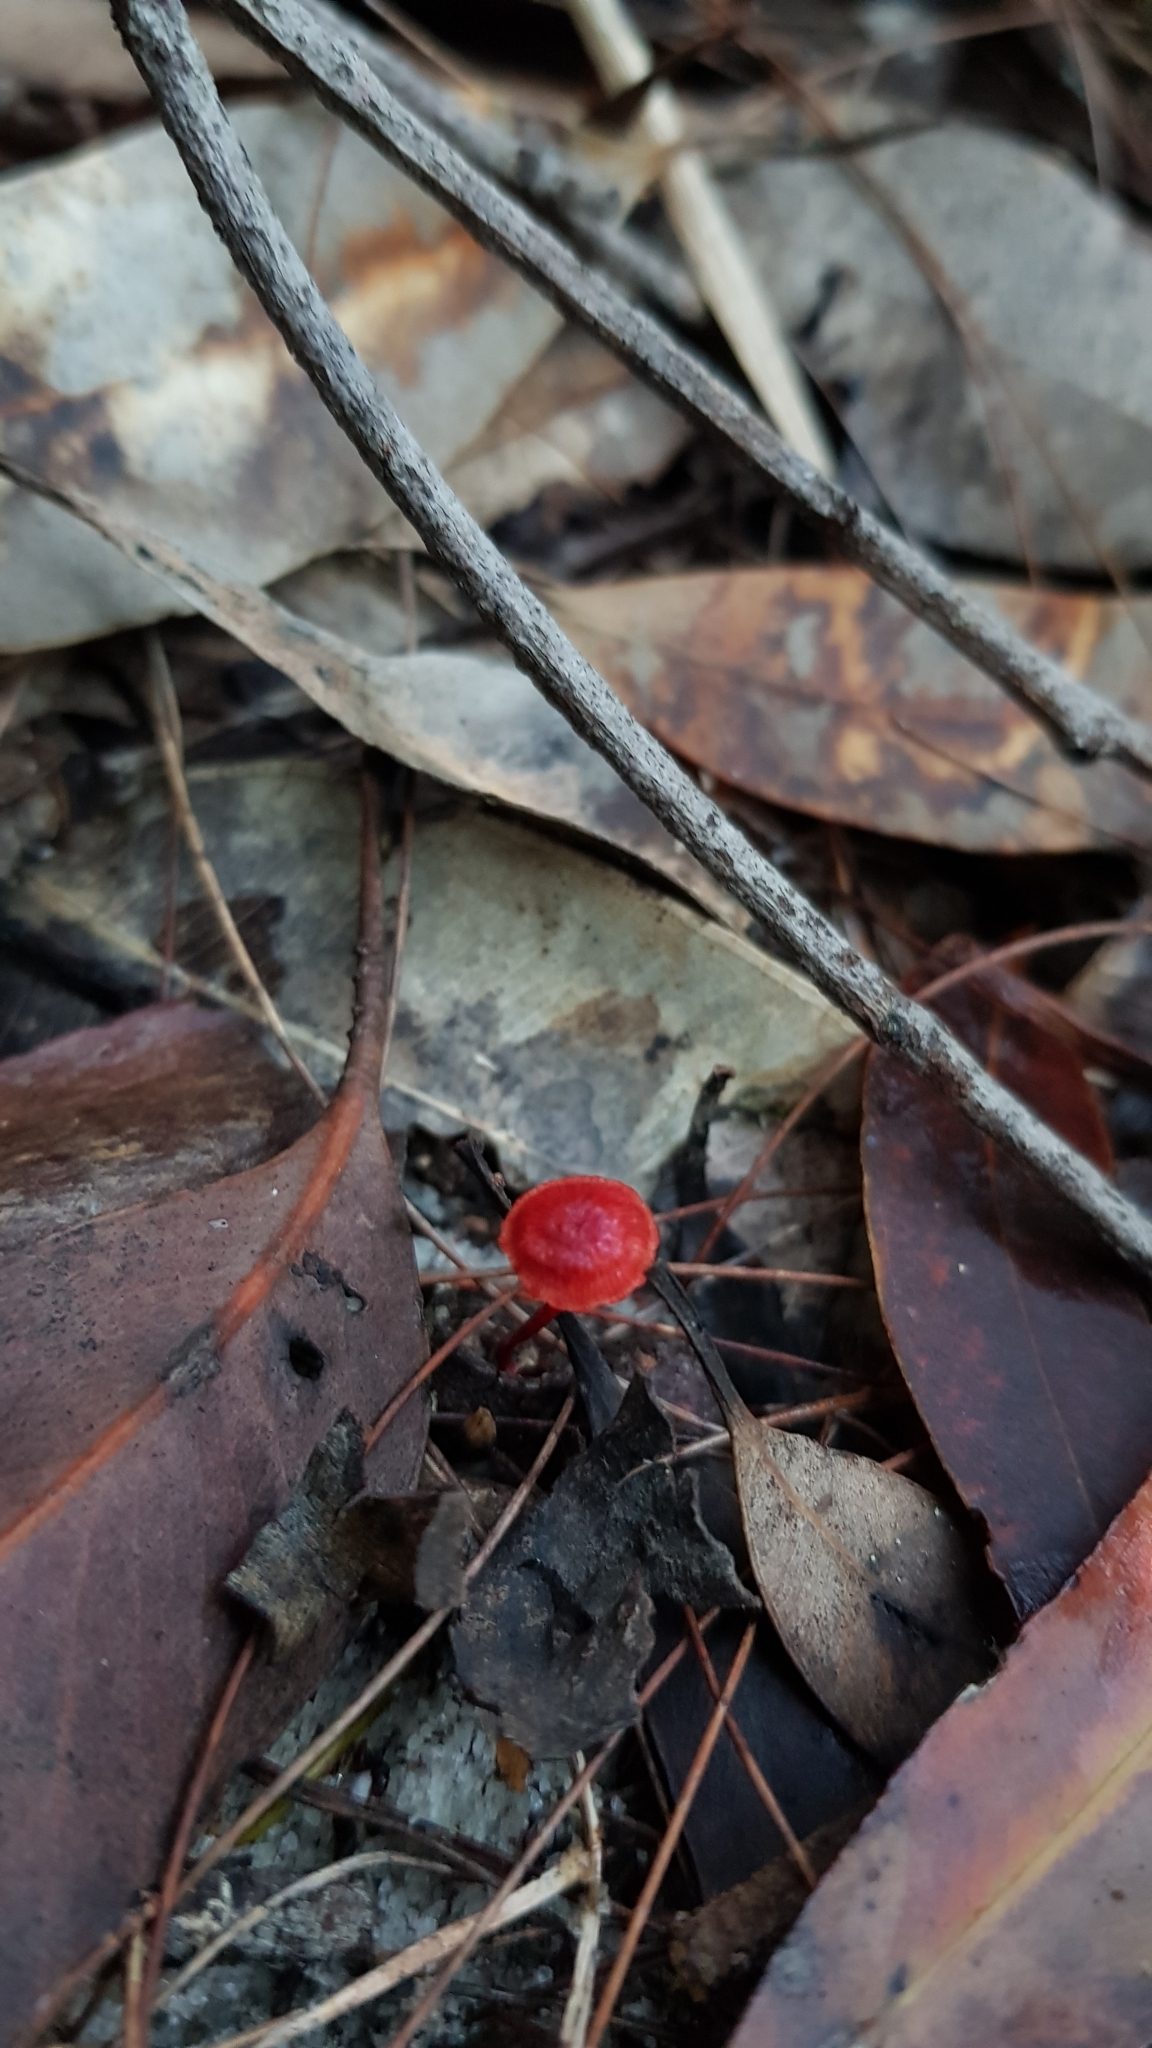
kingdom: Fungi
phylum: Basidiomycota
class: Agaricomycetes
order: Agaricales
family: Mycenaceae
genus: Cruentomycena
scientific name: Cruentomycena viscidocruenta
